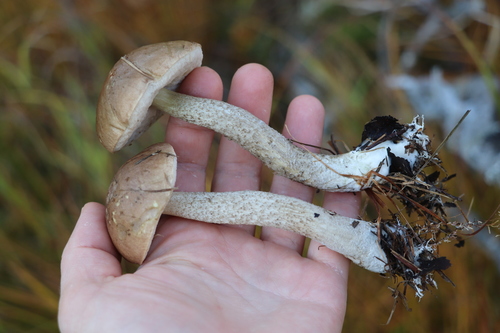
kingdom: Fungi
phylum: Basidiomycota
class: Agaricomycetes
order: Boletales
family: Boletaceae
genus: Leccinum
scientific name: Leccinum holopus
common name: Ghost bolete
